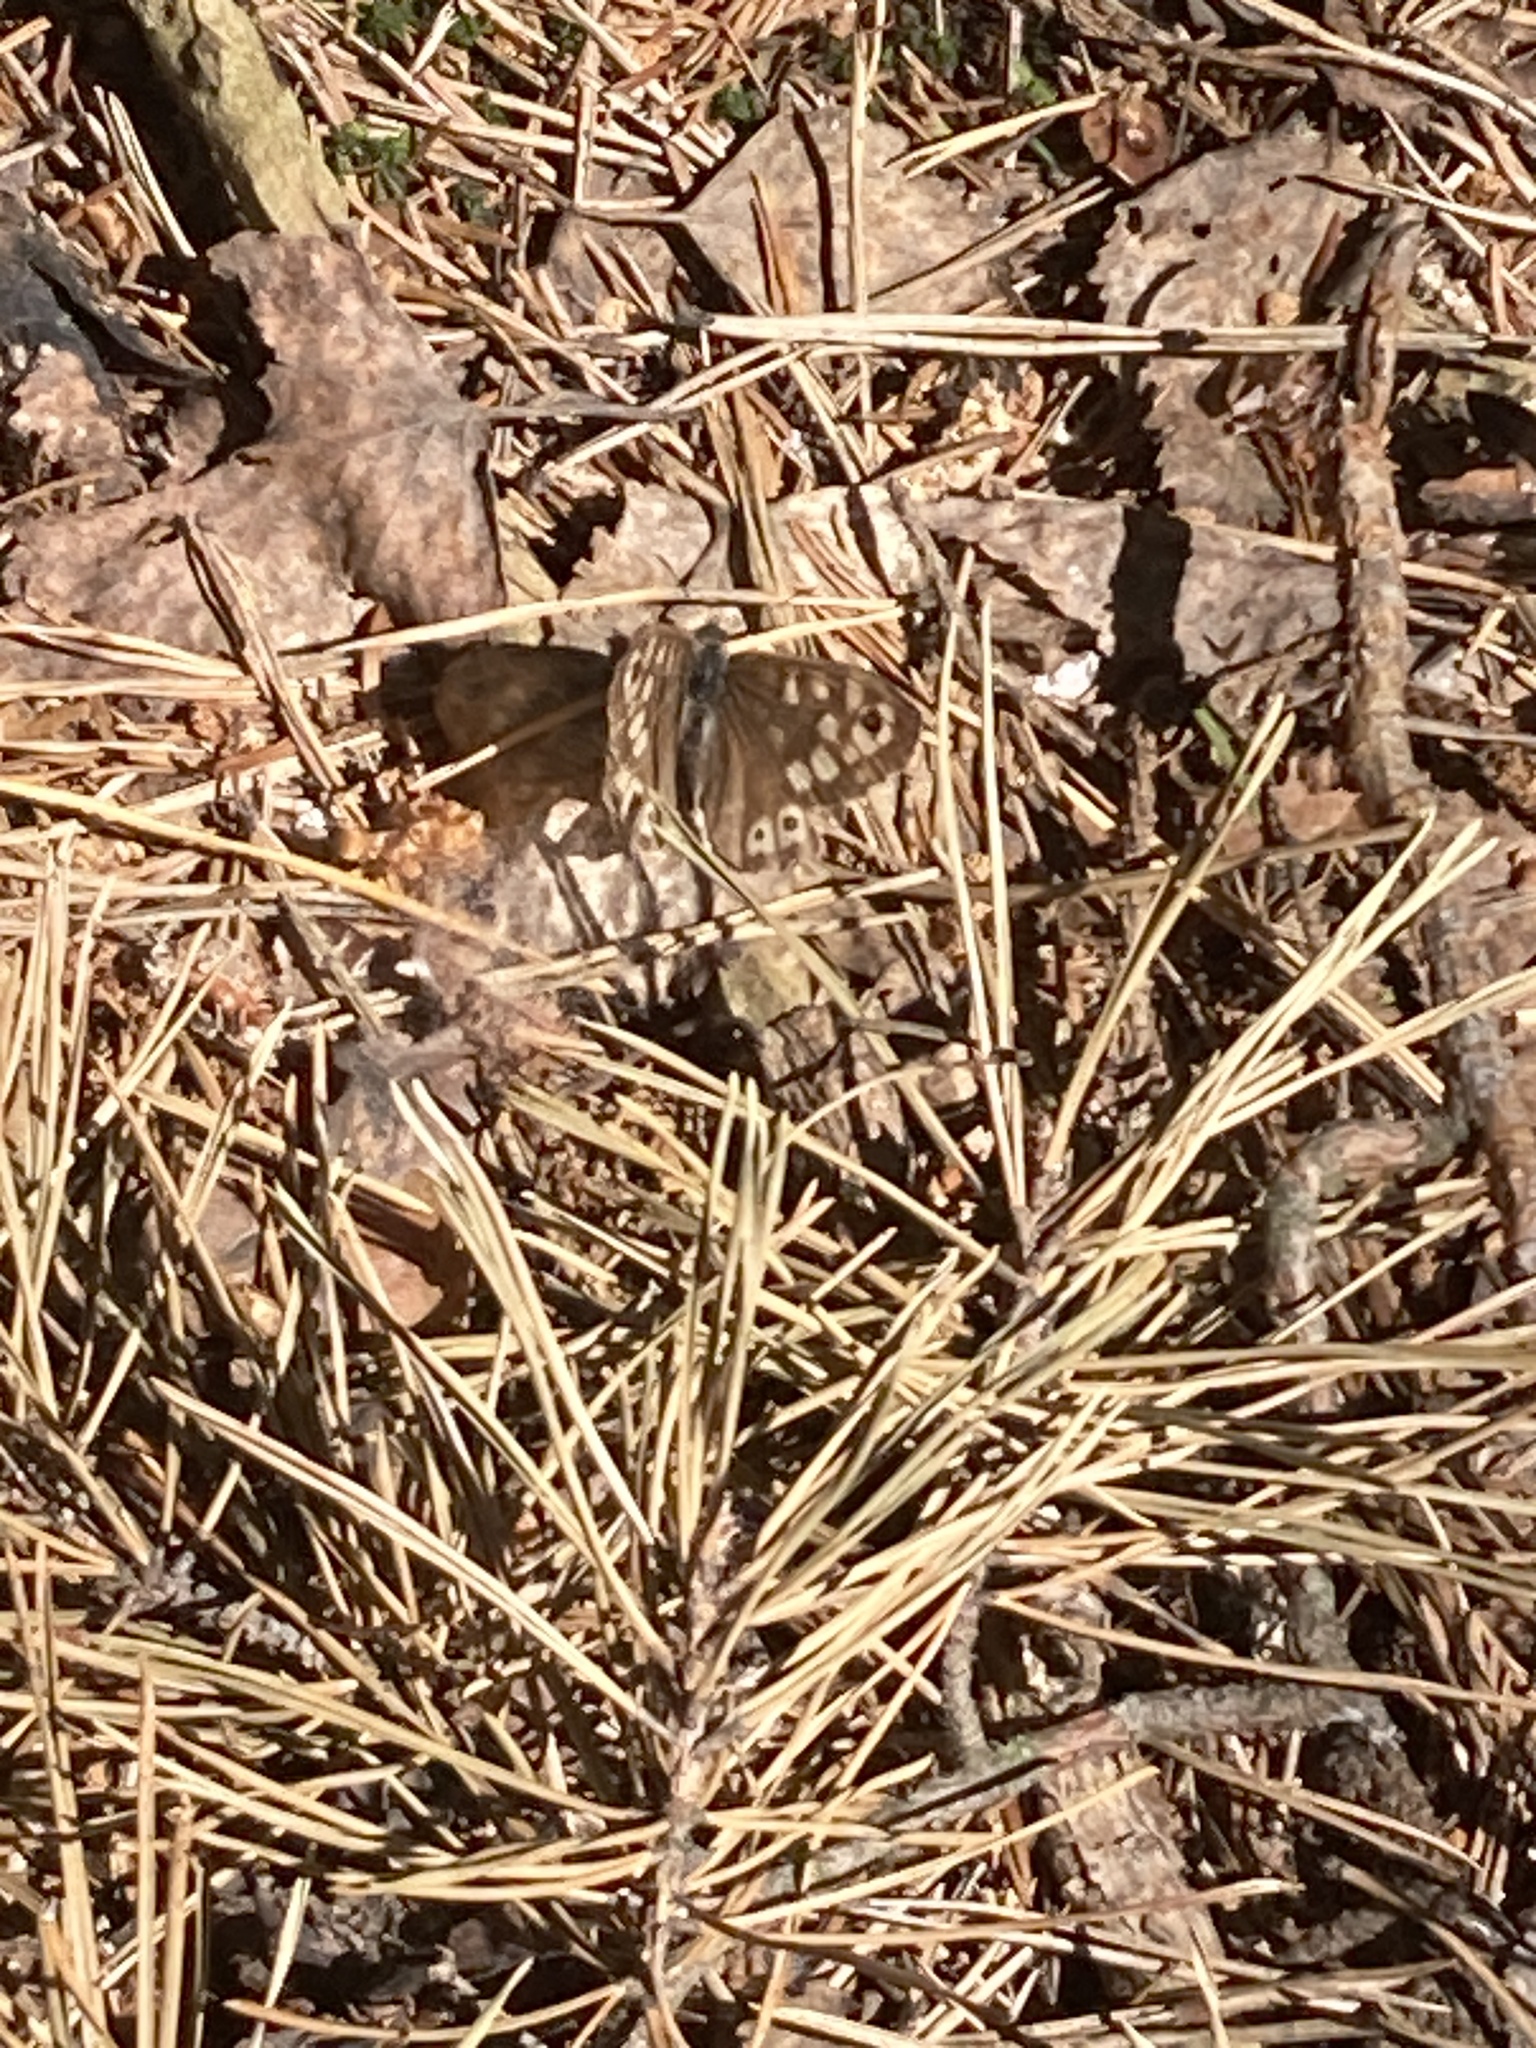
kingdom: Animalia
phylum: Arthropoda
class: Insecta
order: Lepidoptera
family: Nymphalidae
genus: Pararge
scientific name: Pararge aegeria
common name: Speckled wood
